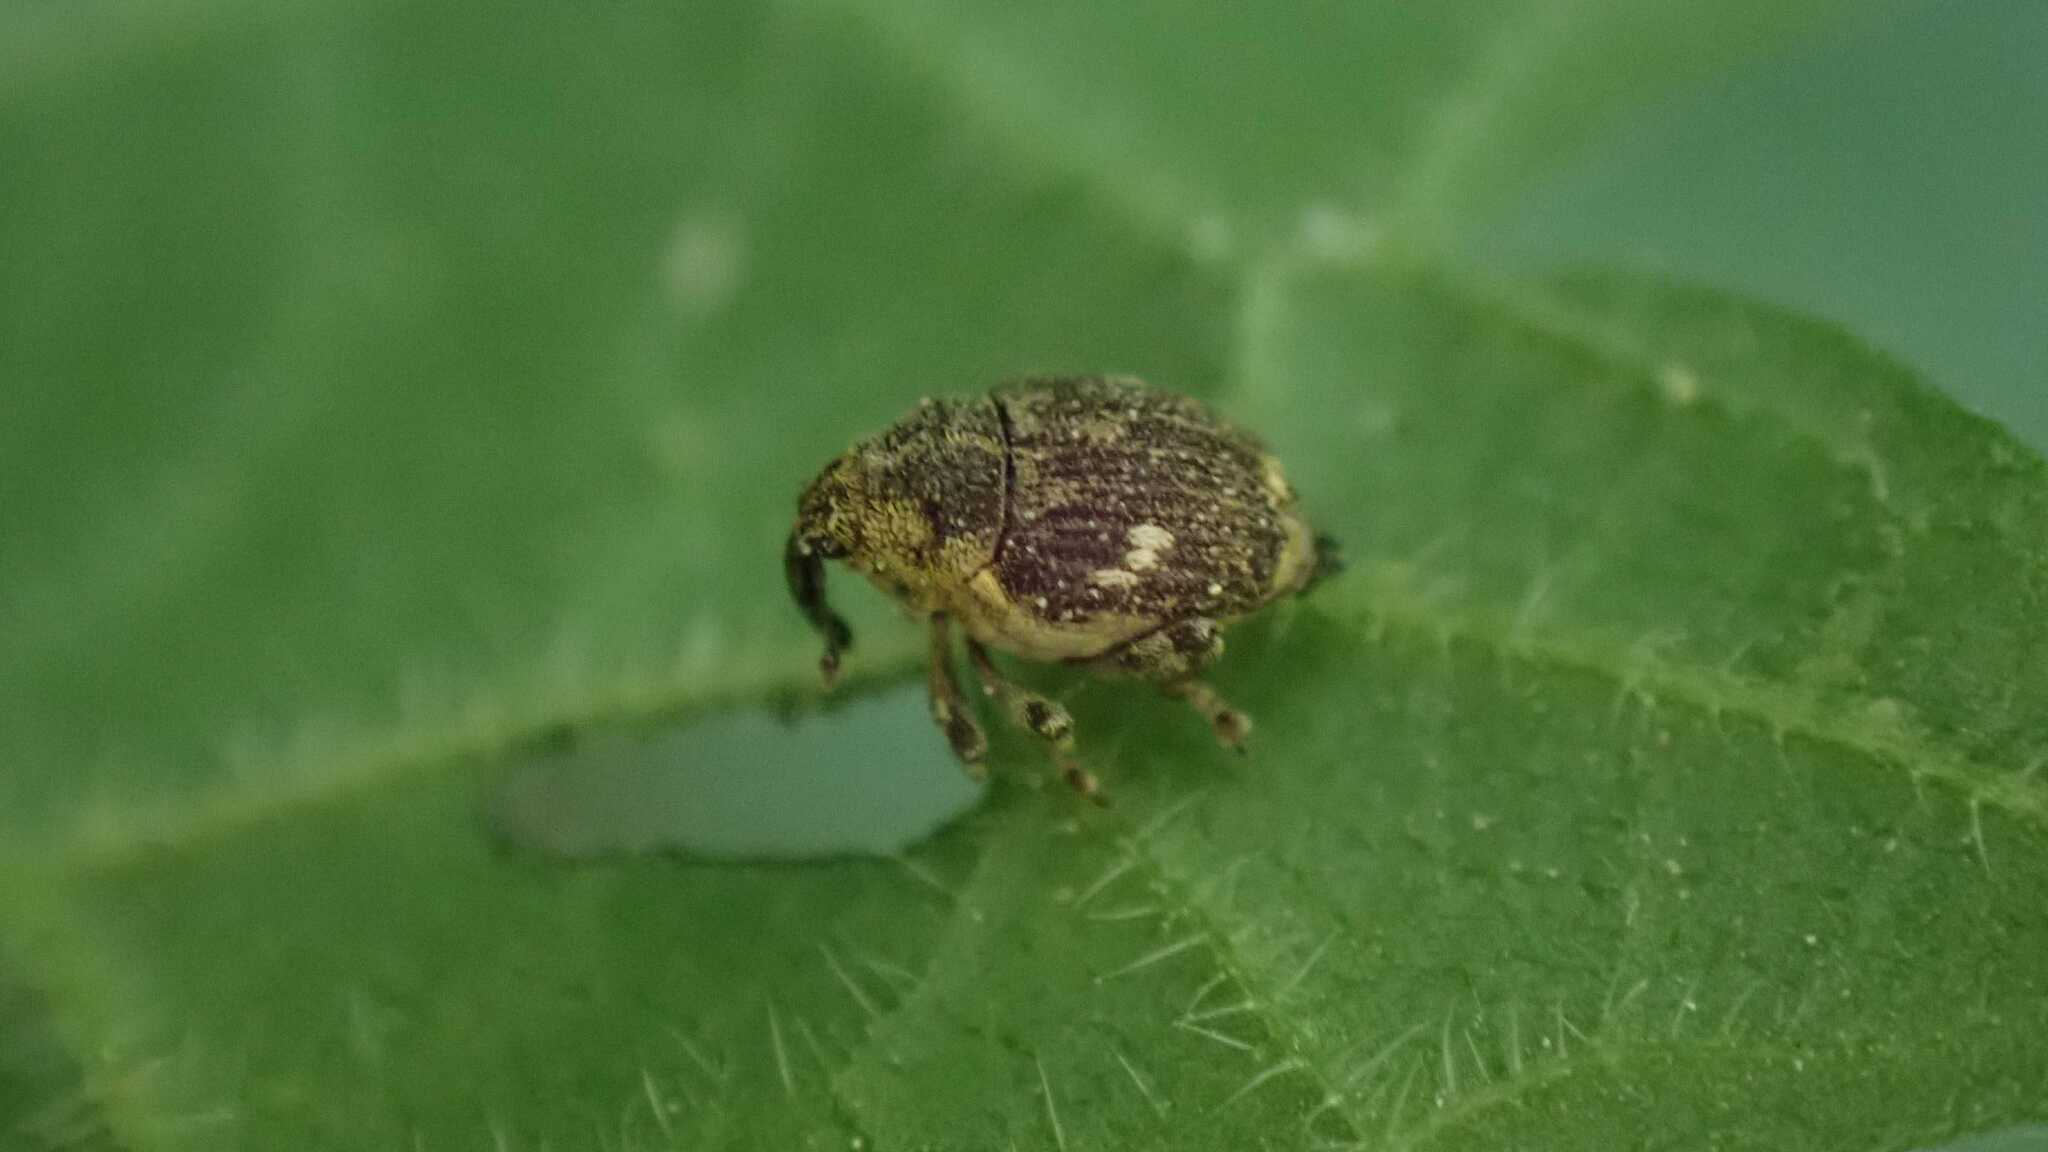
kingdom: Animalia
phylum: Arthropoda
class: Insecta
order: Coleoptera
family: Curculionidae
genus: Nedyus
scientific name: Nedyus quadrimaculatus
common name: Small nettle weevil
